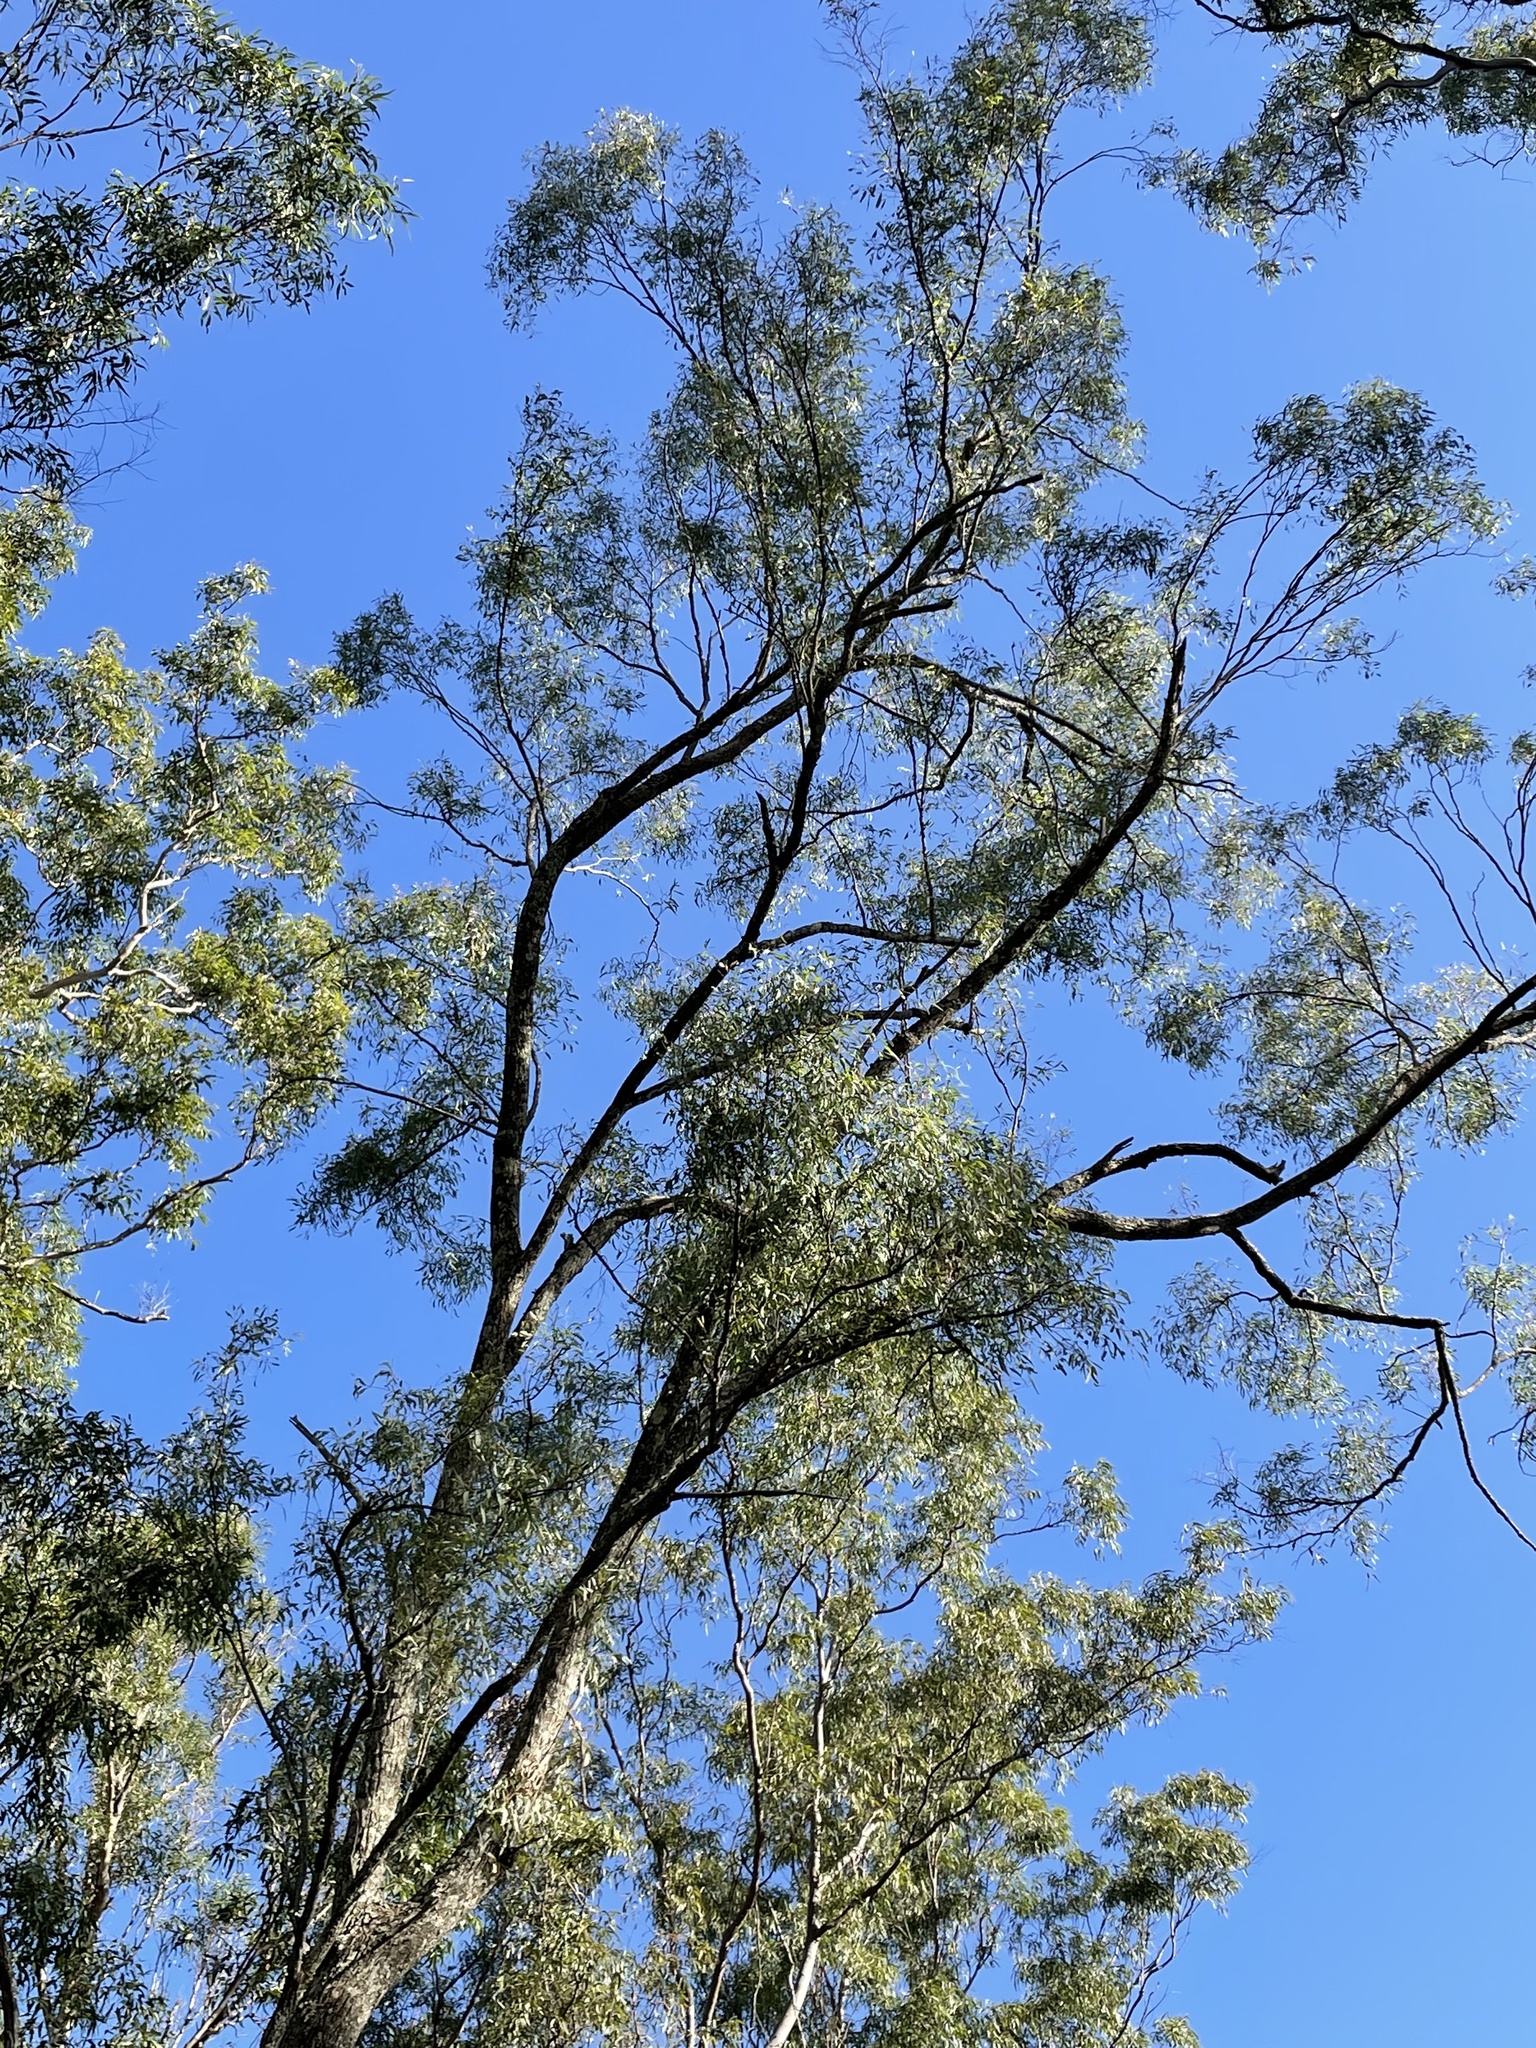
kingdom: Plantae
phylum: Tracheophyta
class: Magnoliopsida
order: Myrtales
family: Myrtaceae
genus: Eucalyptus
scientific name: Eucalyptus siderophloia
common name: Broad-leafed-ironbark
